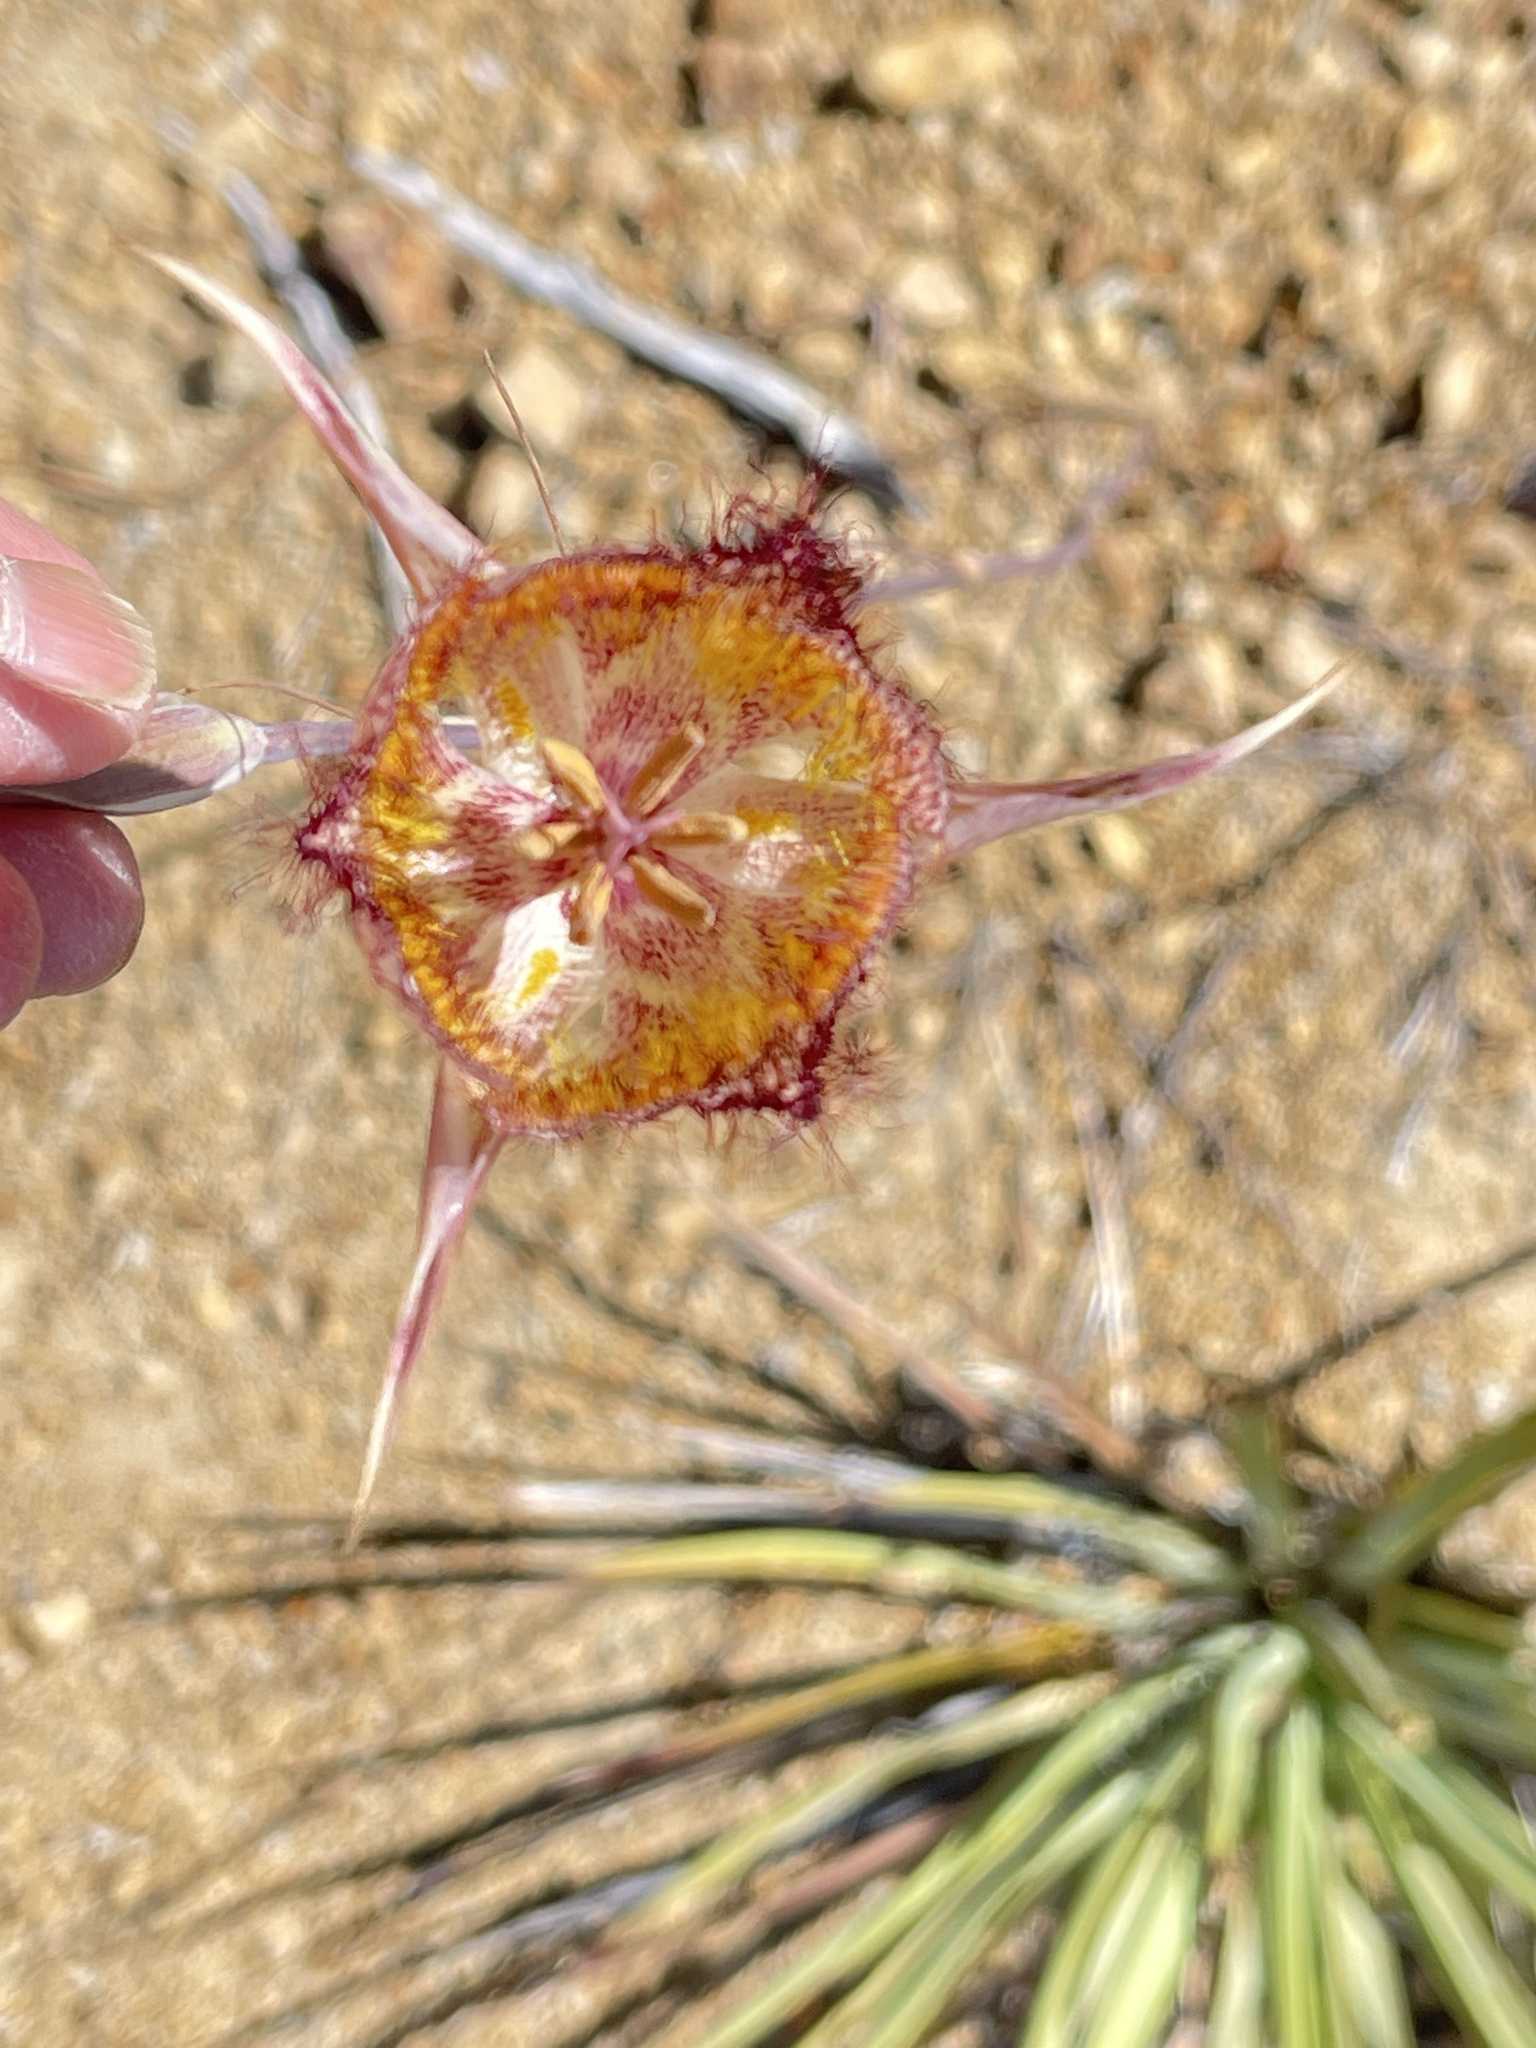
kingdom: Plantae
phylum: Tracheophyta
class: Liliopsida
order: Liliales
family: Liliaceae
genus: Calochortus
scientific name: Calochortus fimbriatus
